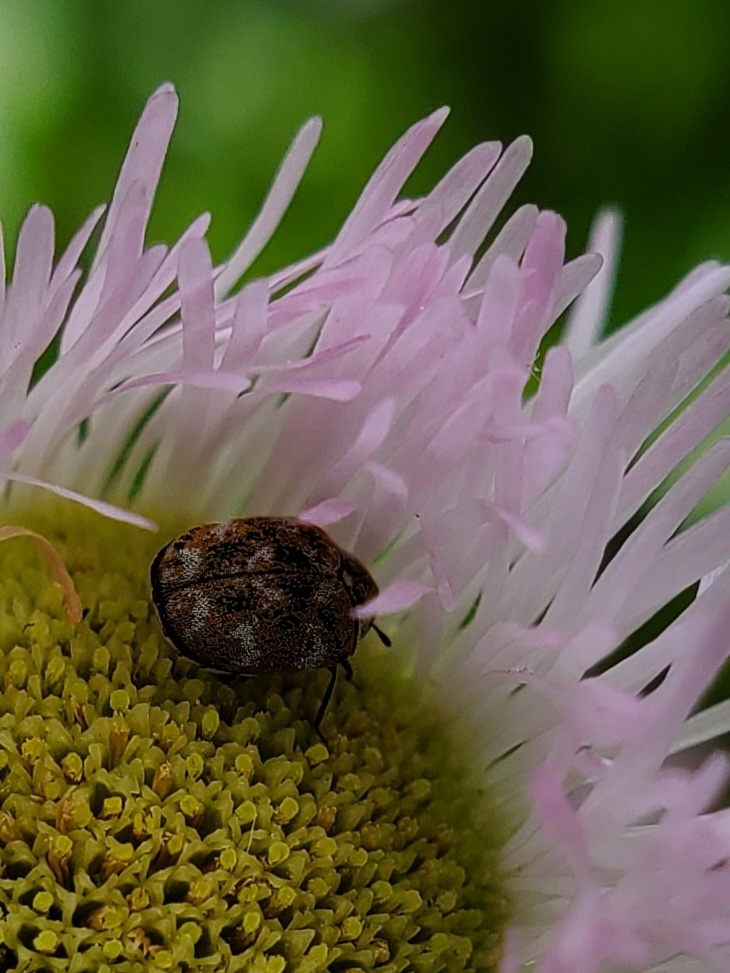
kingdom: Animalia
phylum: Arthropoda
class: Insecta
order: Coleoptera
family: Dermestidae
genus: Anthrenus
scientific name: Anthrenus verbasci
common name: Varied carpet beetle
